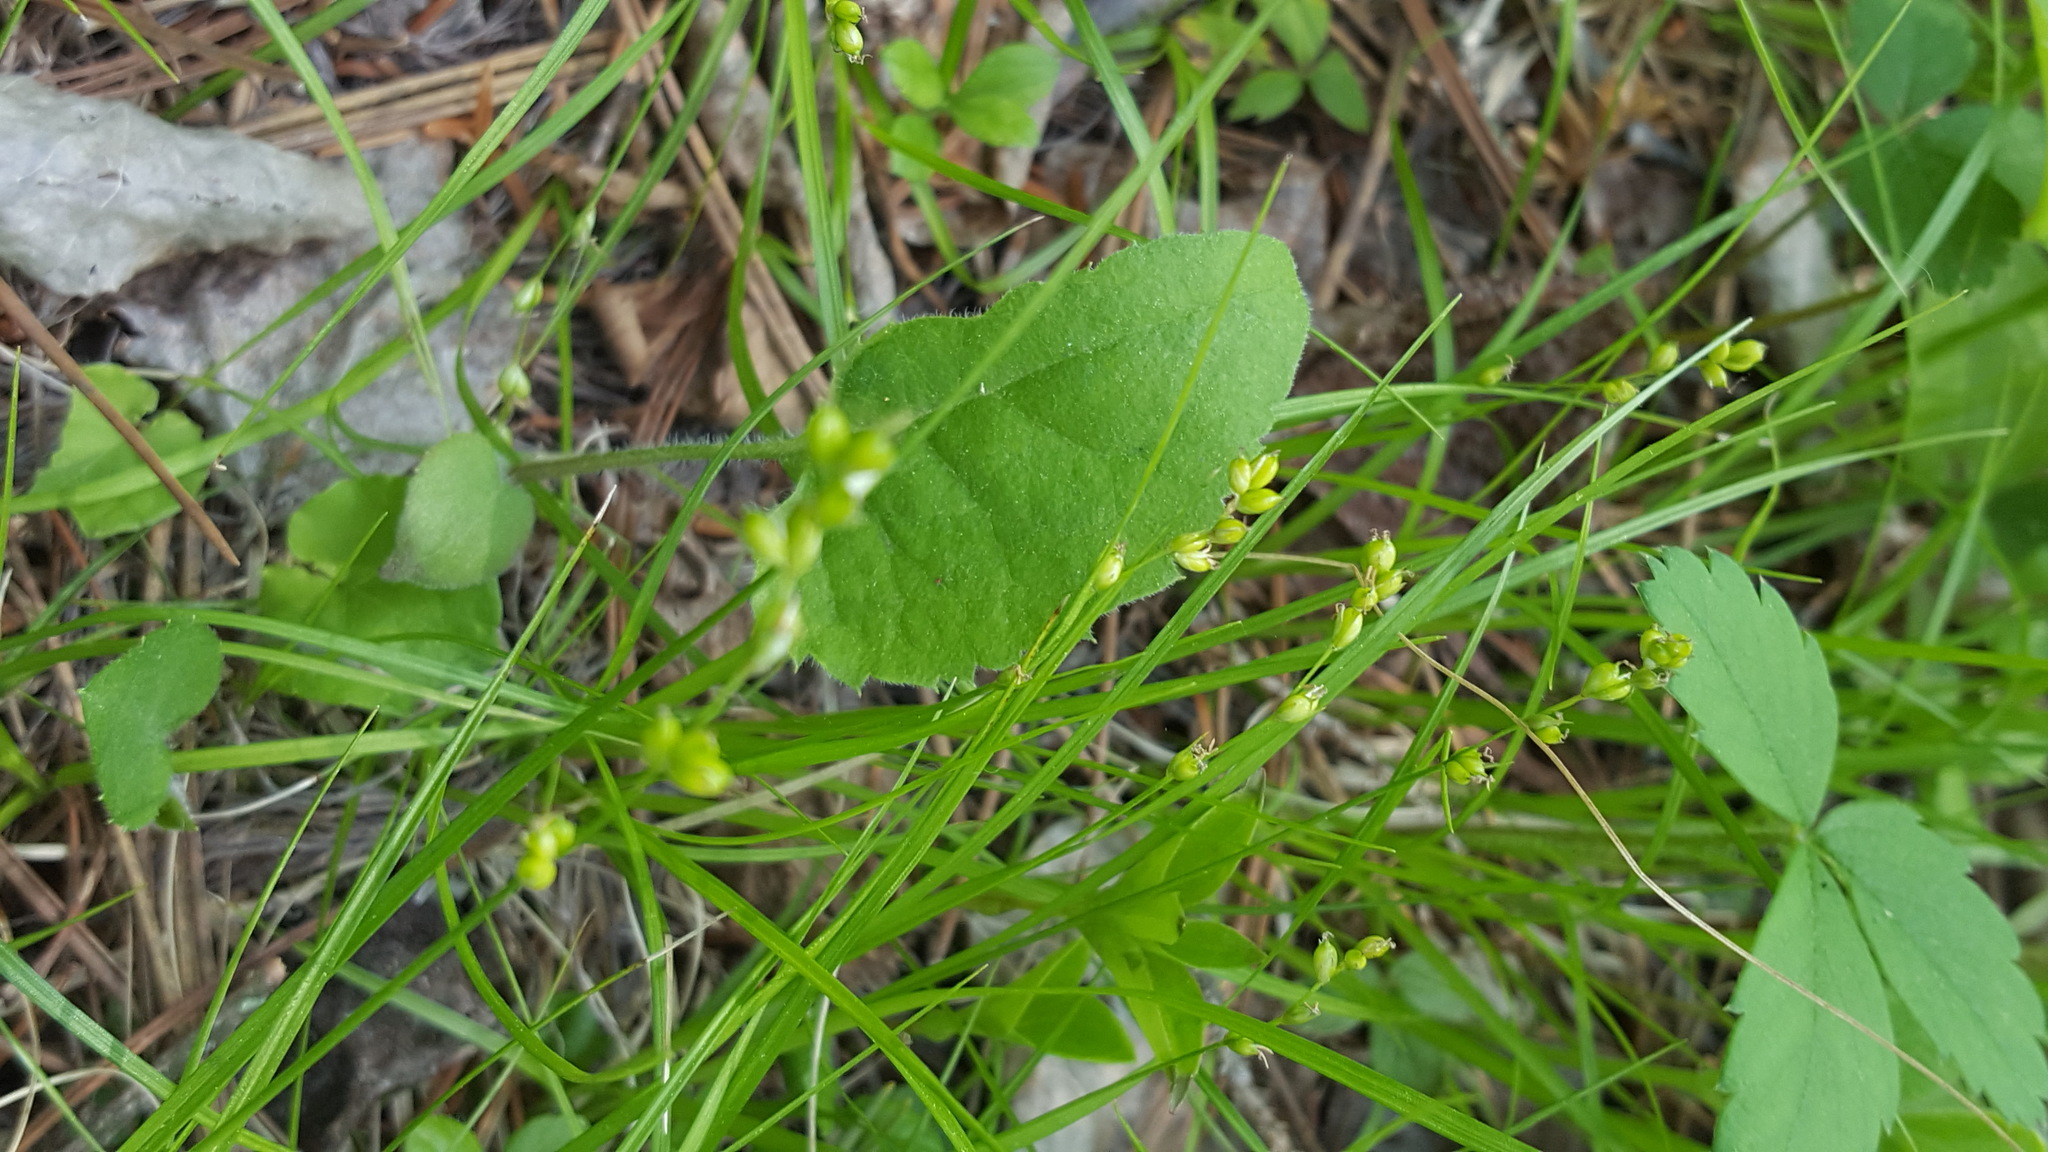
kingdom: Plantae
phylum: Tracheophyta
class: Liliopsida
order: Poales
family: Cyperaceae
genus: Carex
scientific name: Carex disperma
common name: Short-leaved sedge
